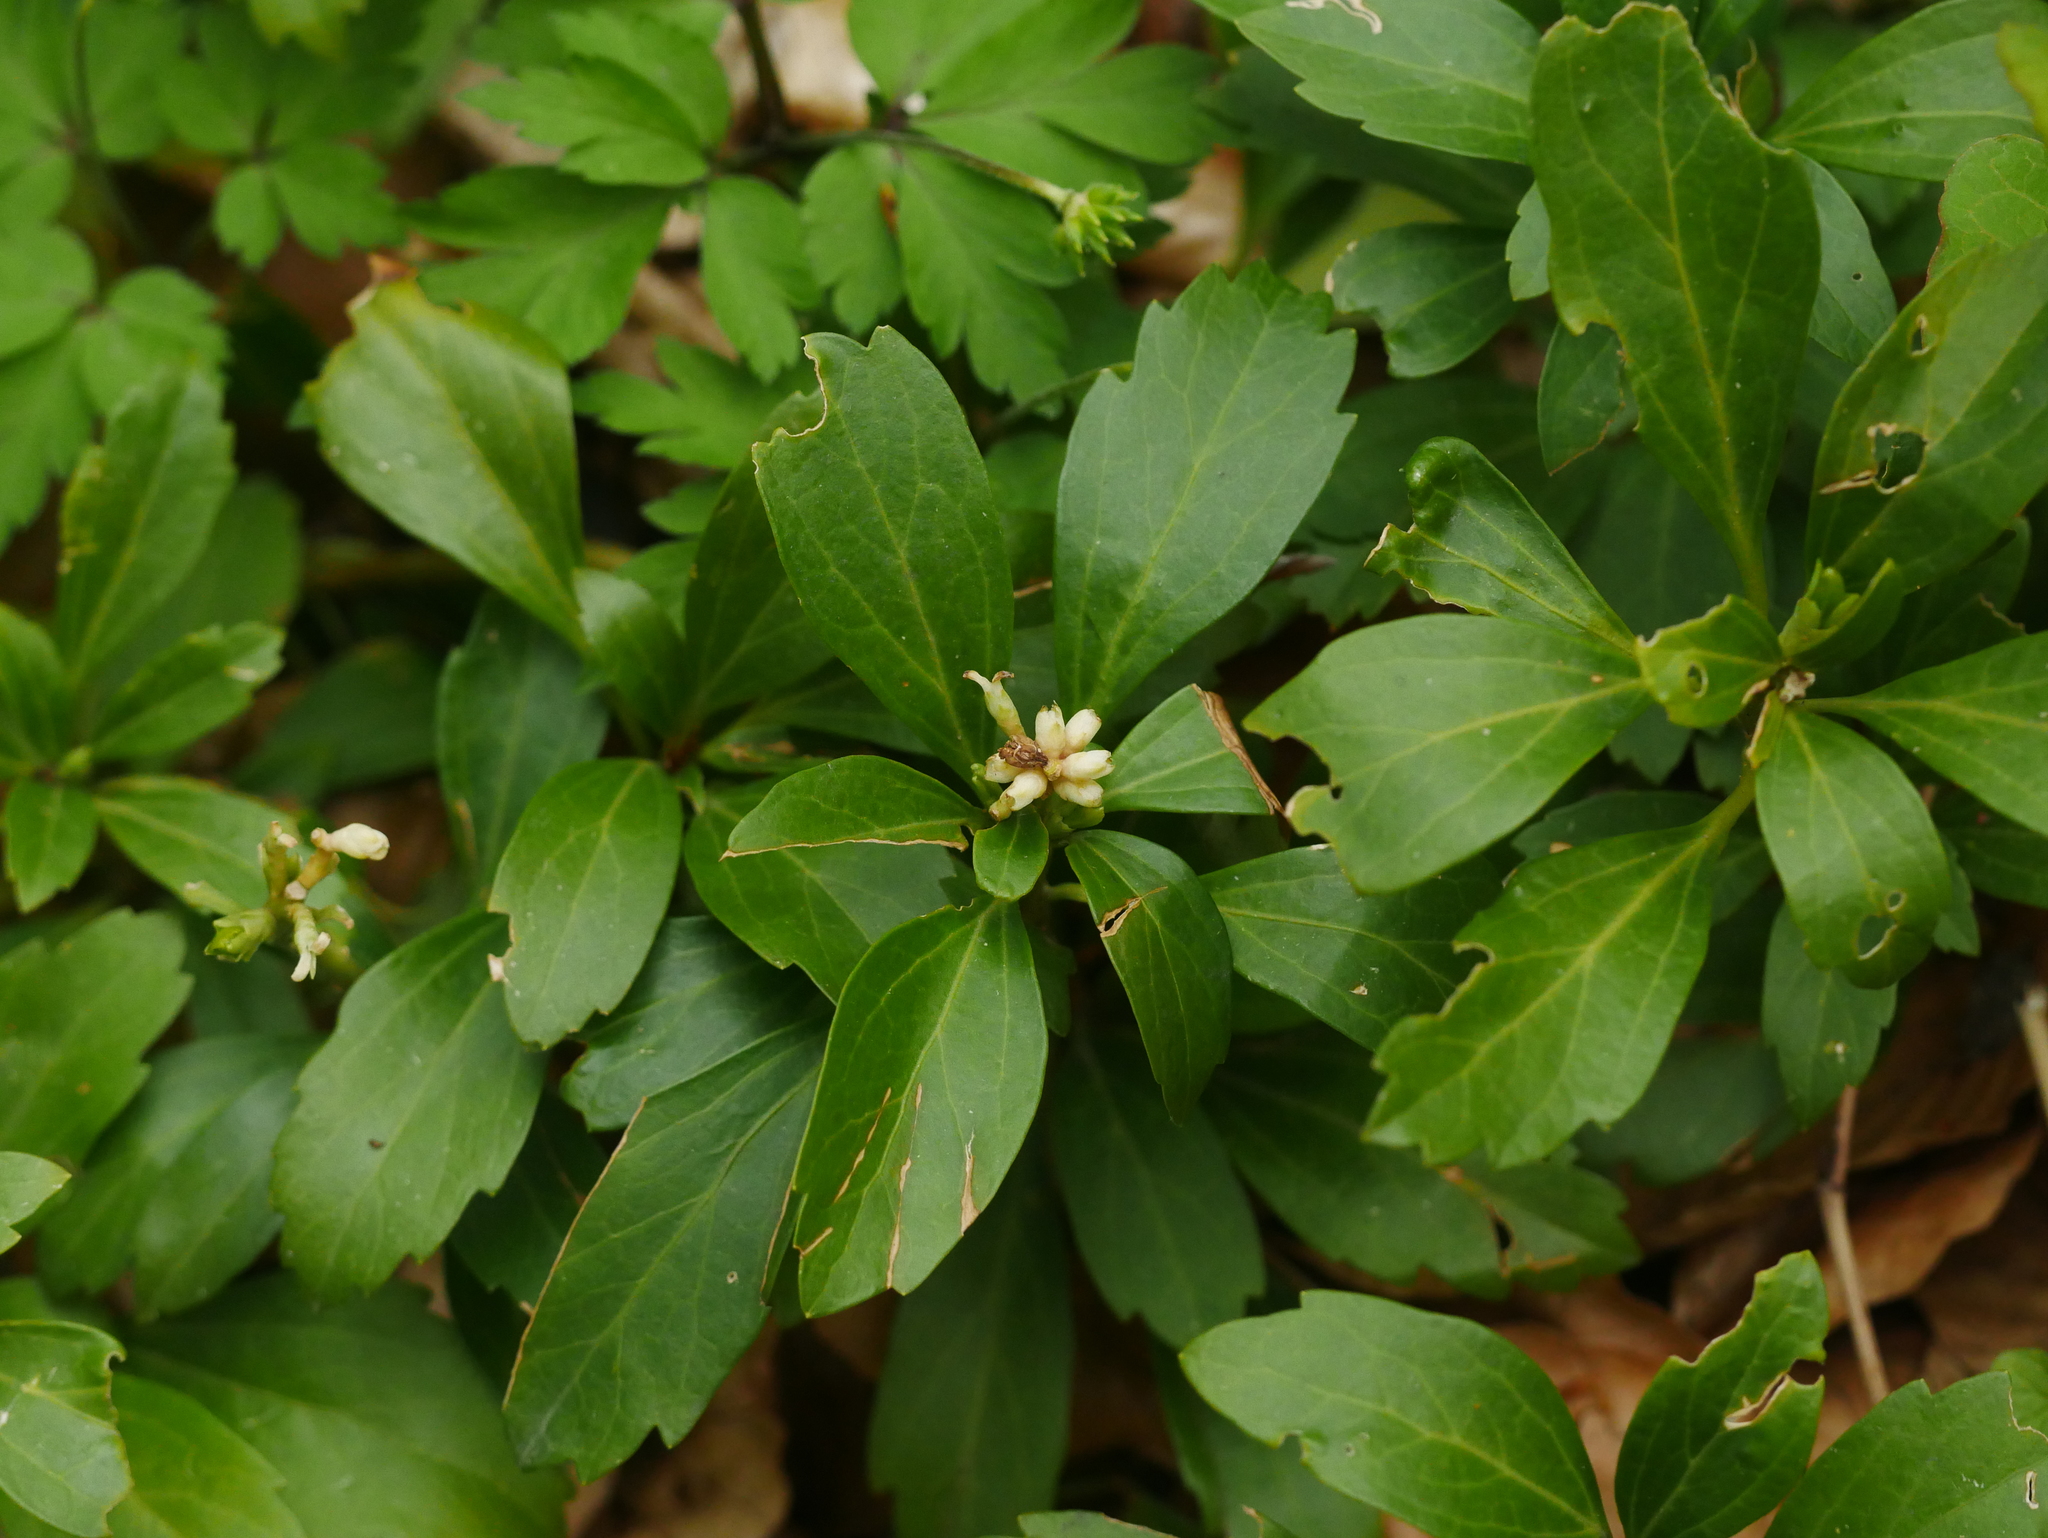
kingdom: Plantae
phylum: Tracheophyta
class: Magnoliopsida
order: Buxales
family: Buxaceae
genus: Pachysandra
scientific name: Pachysandra terminalis
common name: Japanese pachysandra
